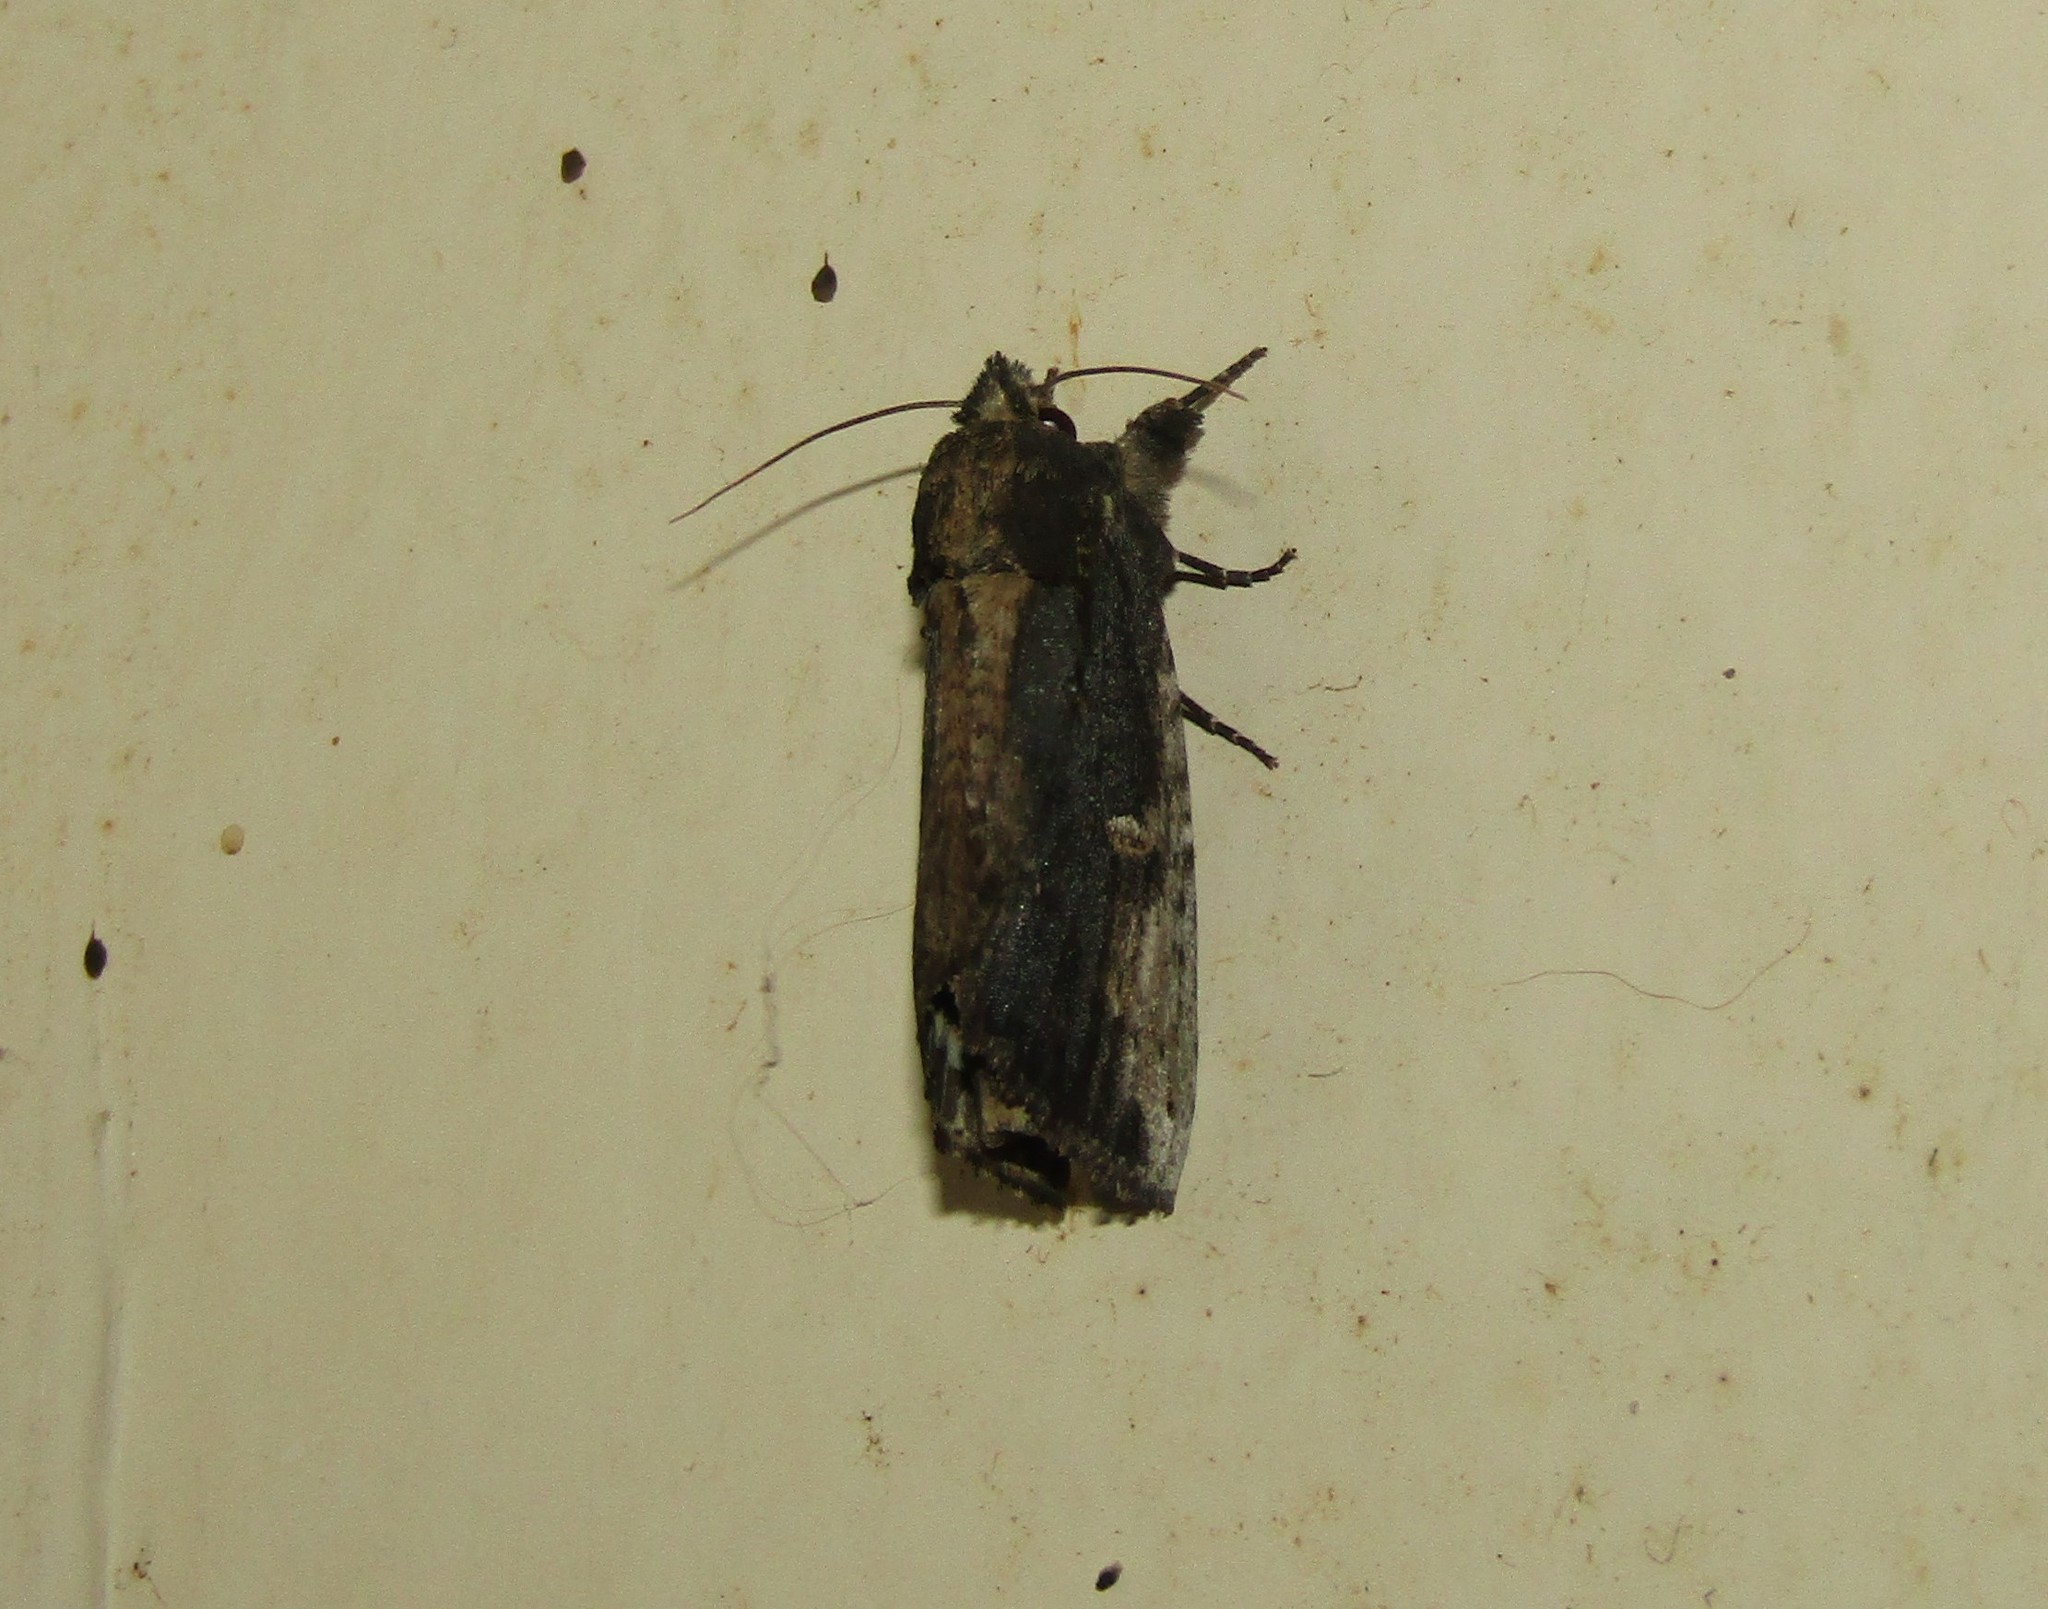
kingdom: Animalia
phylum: Arthropoda
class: Insecta
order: Lepidoptera
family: Notodontidae
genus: Schizura
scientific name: Schizura ipomaeae
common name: Morning-glory prominent
